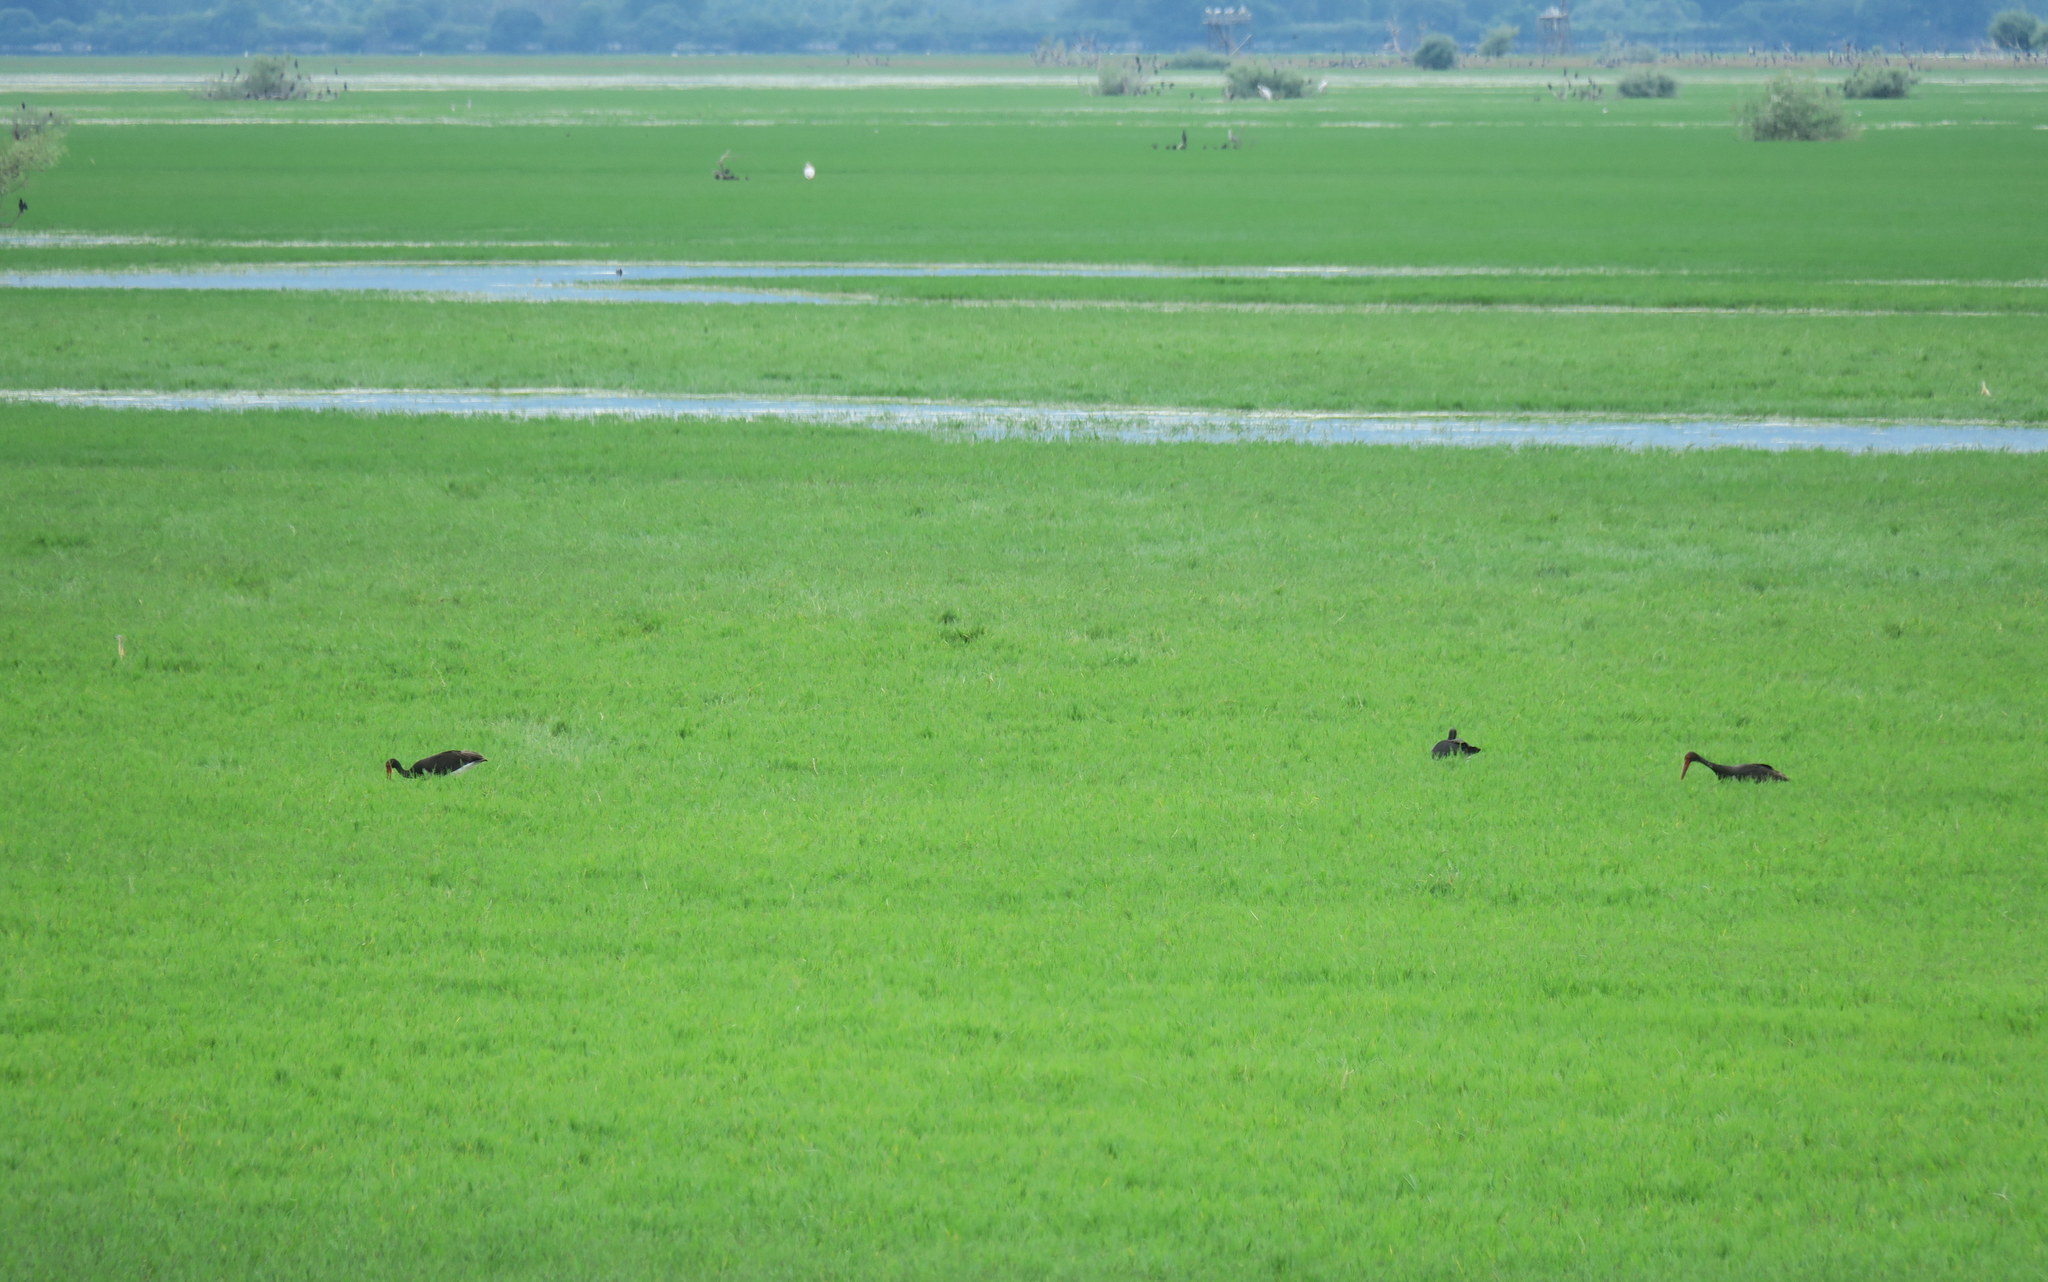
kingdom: Animalia
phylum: Chordata
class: Aves
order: Ciconiiformes
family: Ciconiidae
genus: Ciconia
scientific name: Ciconia nigra
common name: Black stork
